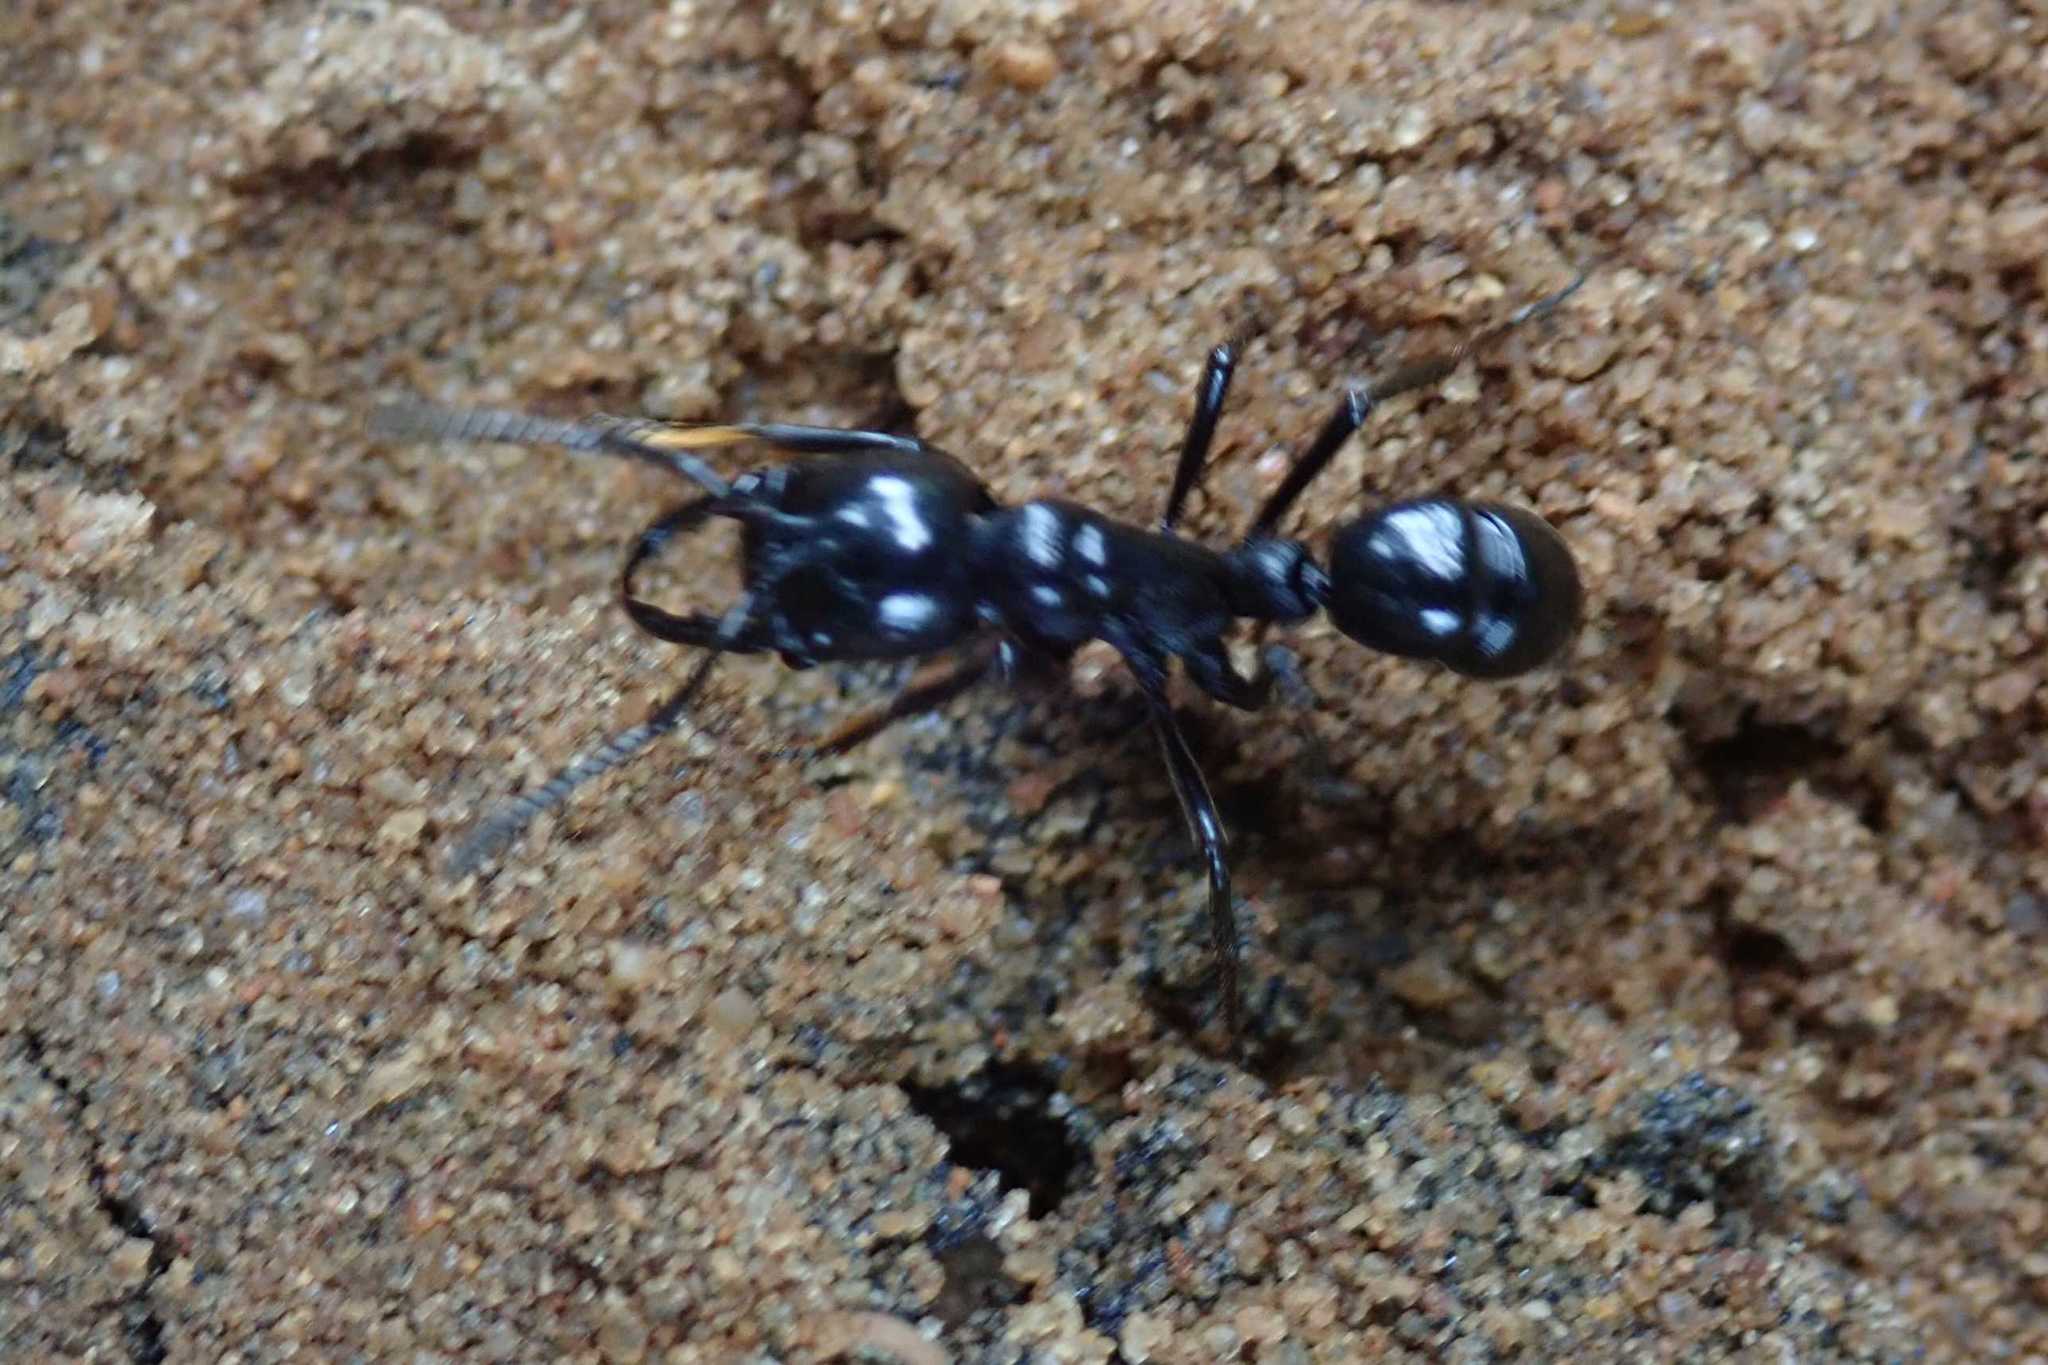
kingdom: Animalia
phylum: Arthropoda
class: Insecta
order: Hymenoptera
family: Formicidae
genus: Plectroctena
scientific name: Plectroctena mandibularis
